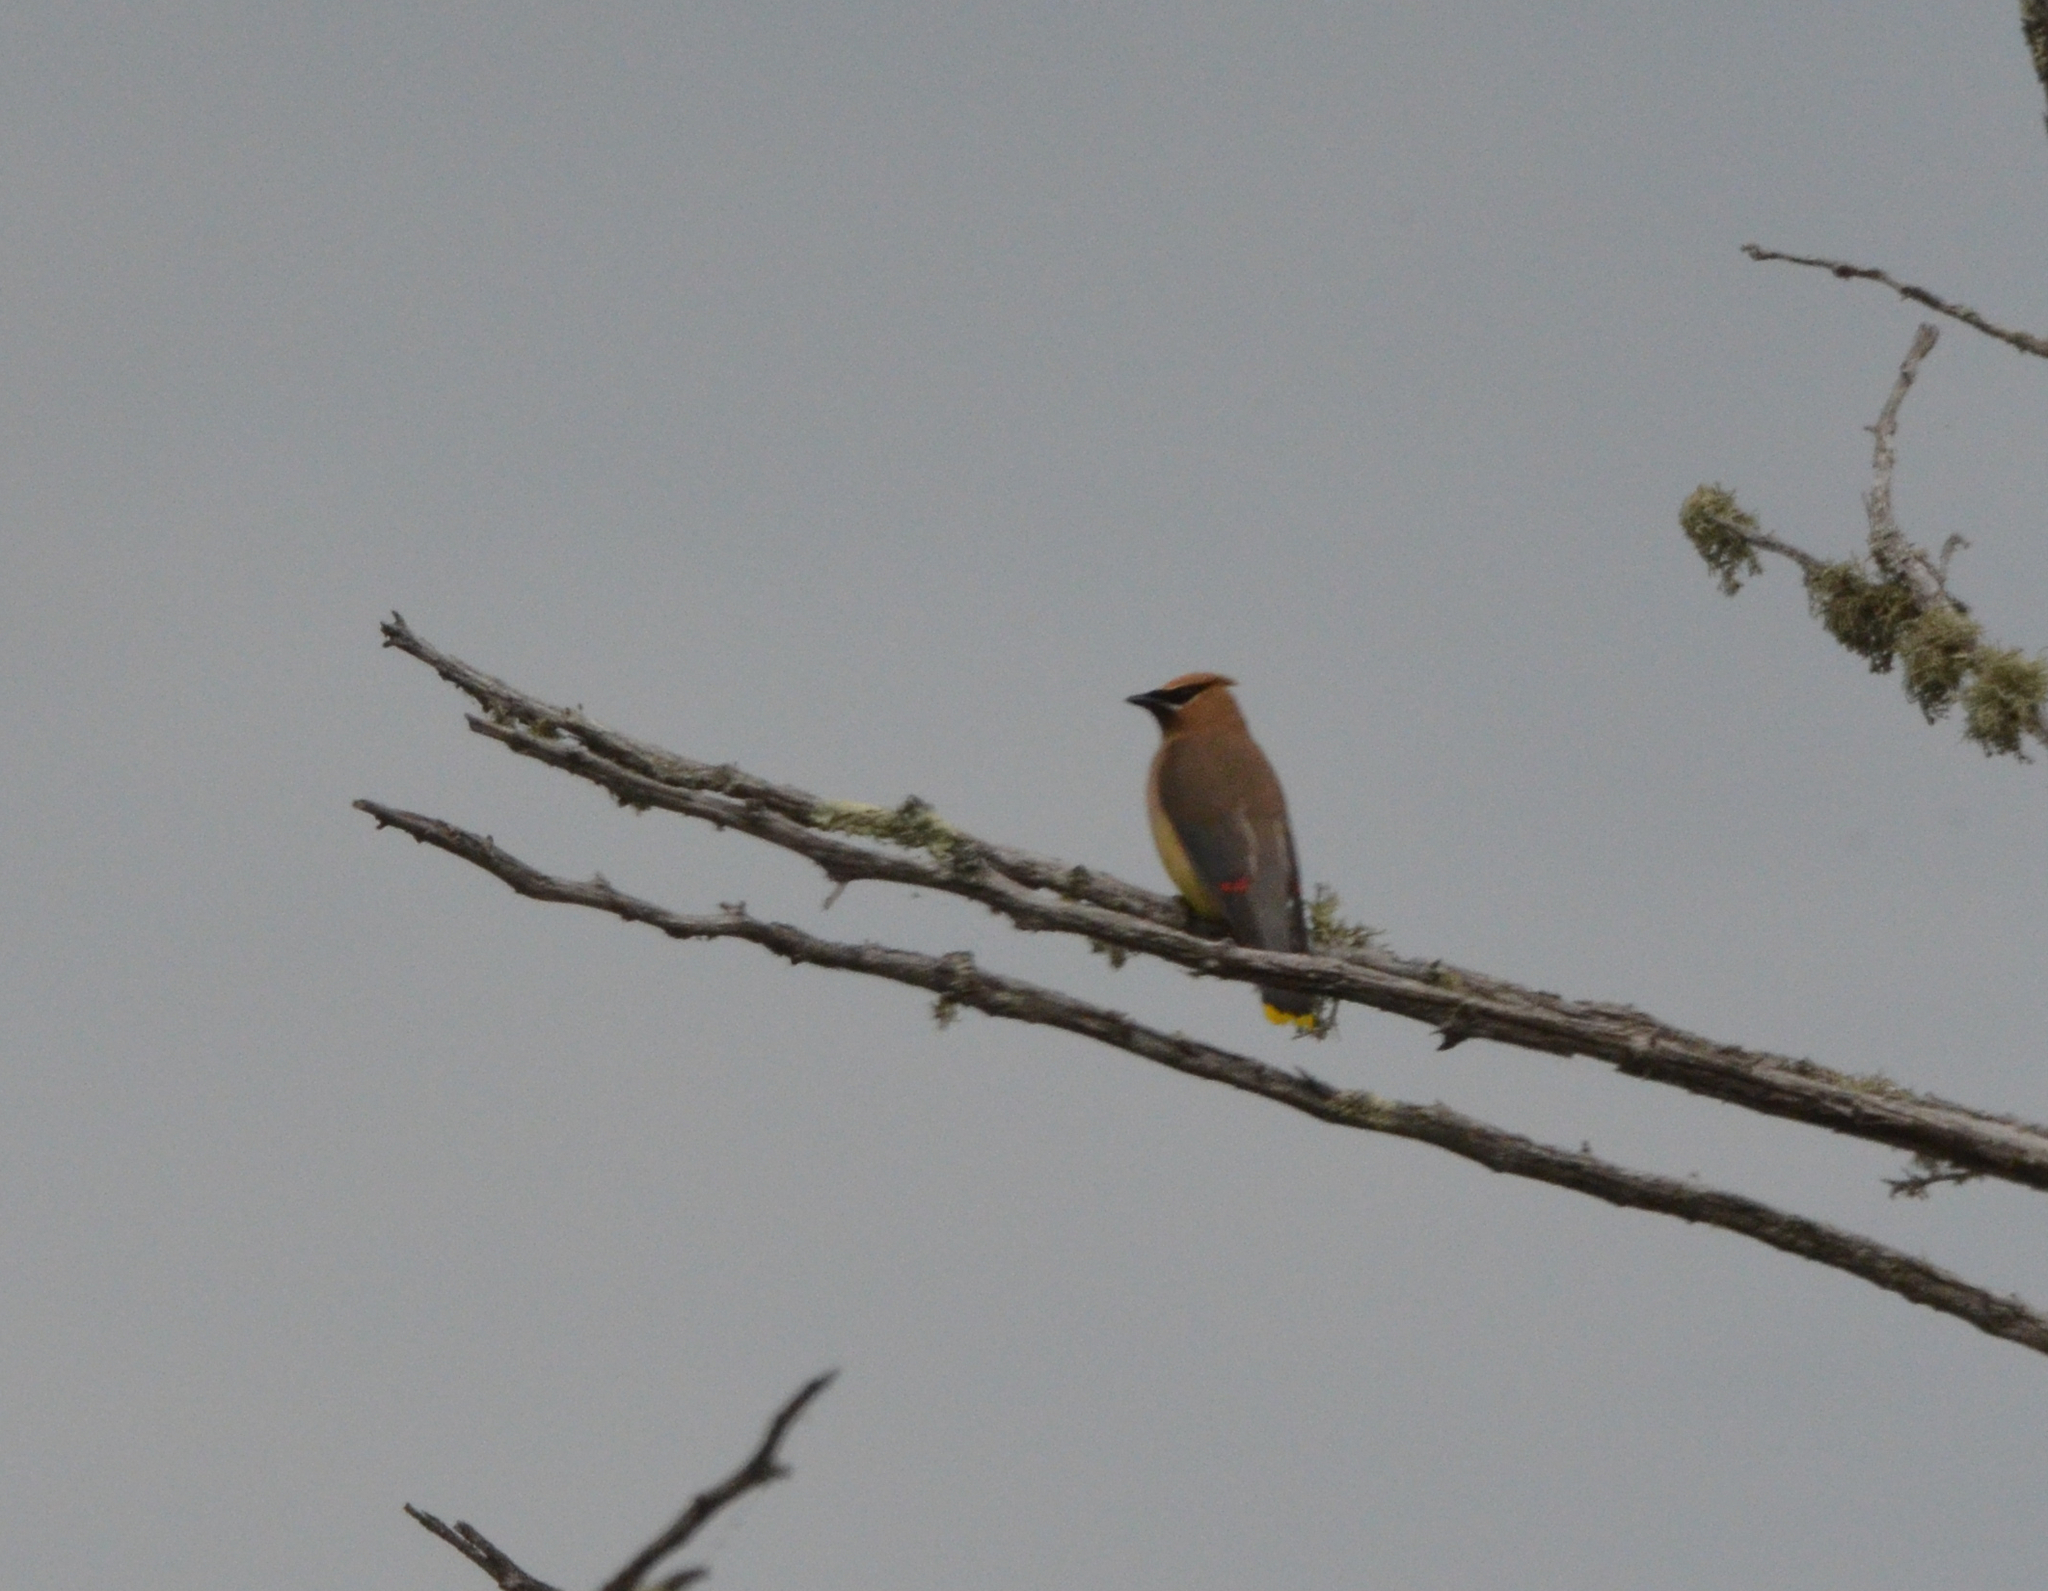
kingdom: Animalia
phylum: Chordata
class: Aves
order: Passeriformes
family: Bombycillidae
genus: Bombycilla
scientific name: Bombycilla cedrorum
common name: Cedar waxwing
